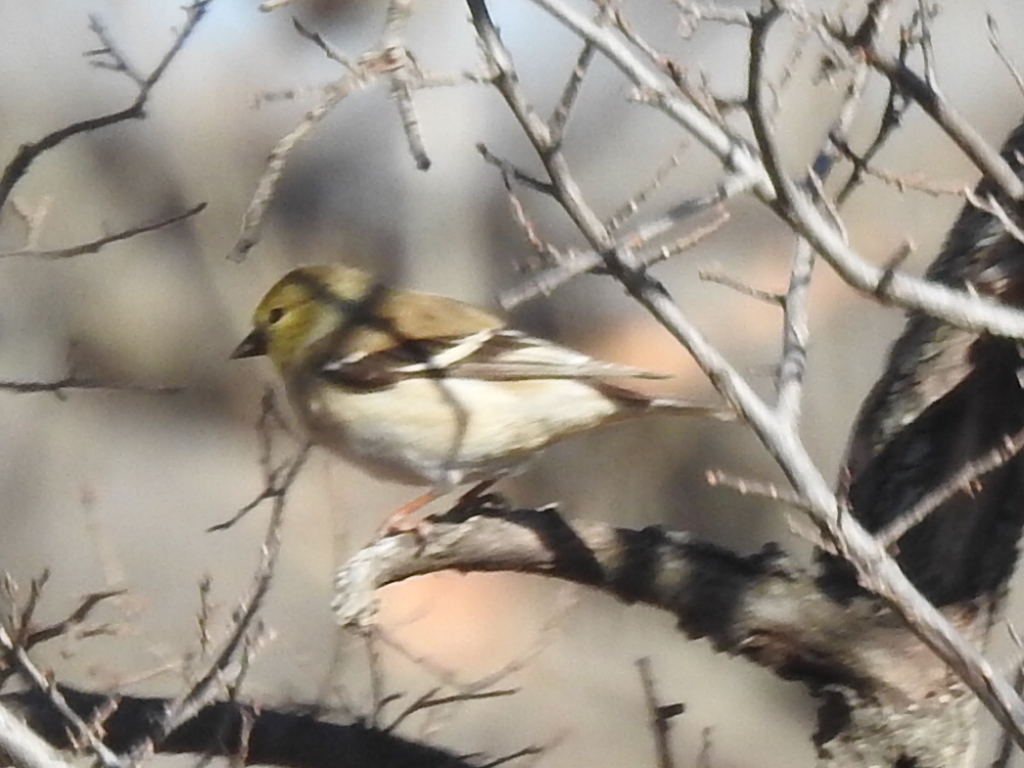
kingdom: Animalia
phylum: Chordata
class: Aves
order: Passeriformes
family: Fringillidae
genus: Spinus
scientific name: Spinus tristis
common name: American goldfinch
